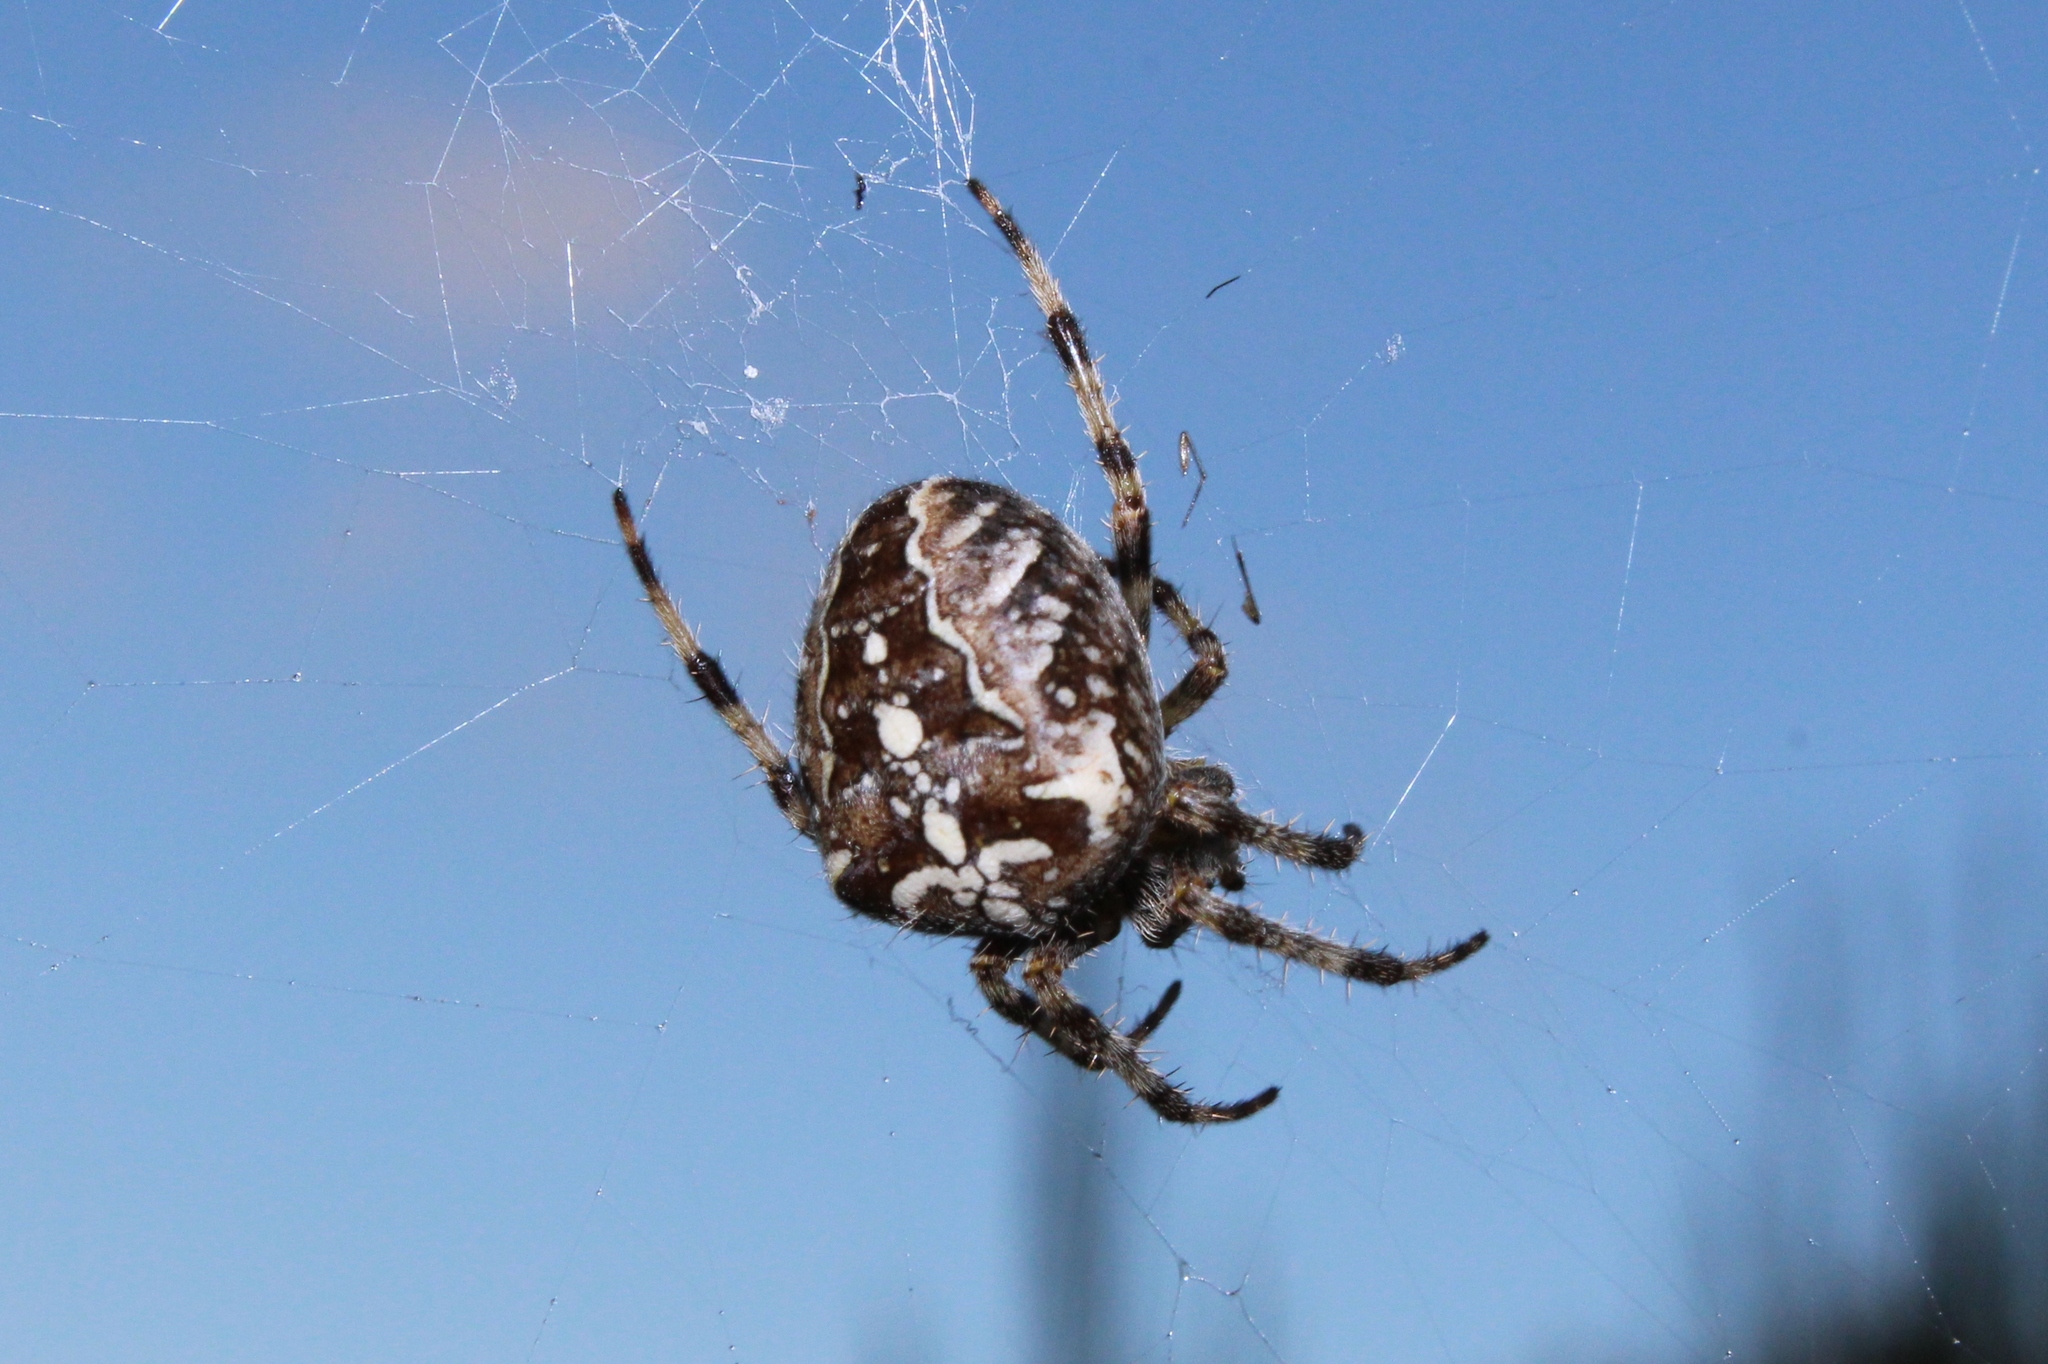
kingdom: Animalia
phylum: Arthropoda
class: Arachnida
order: Araneae
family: Araneidae
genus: Araneus
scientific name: Araneus diadematus
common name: Cross orbweaver
